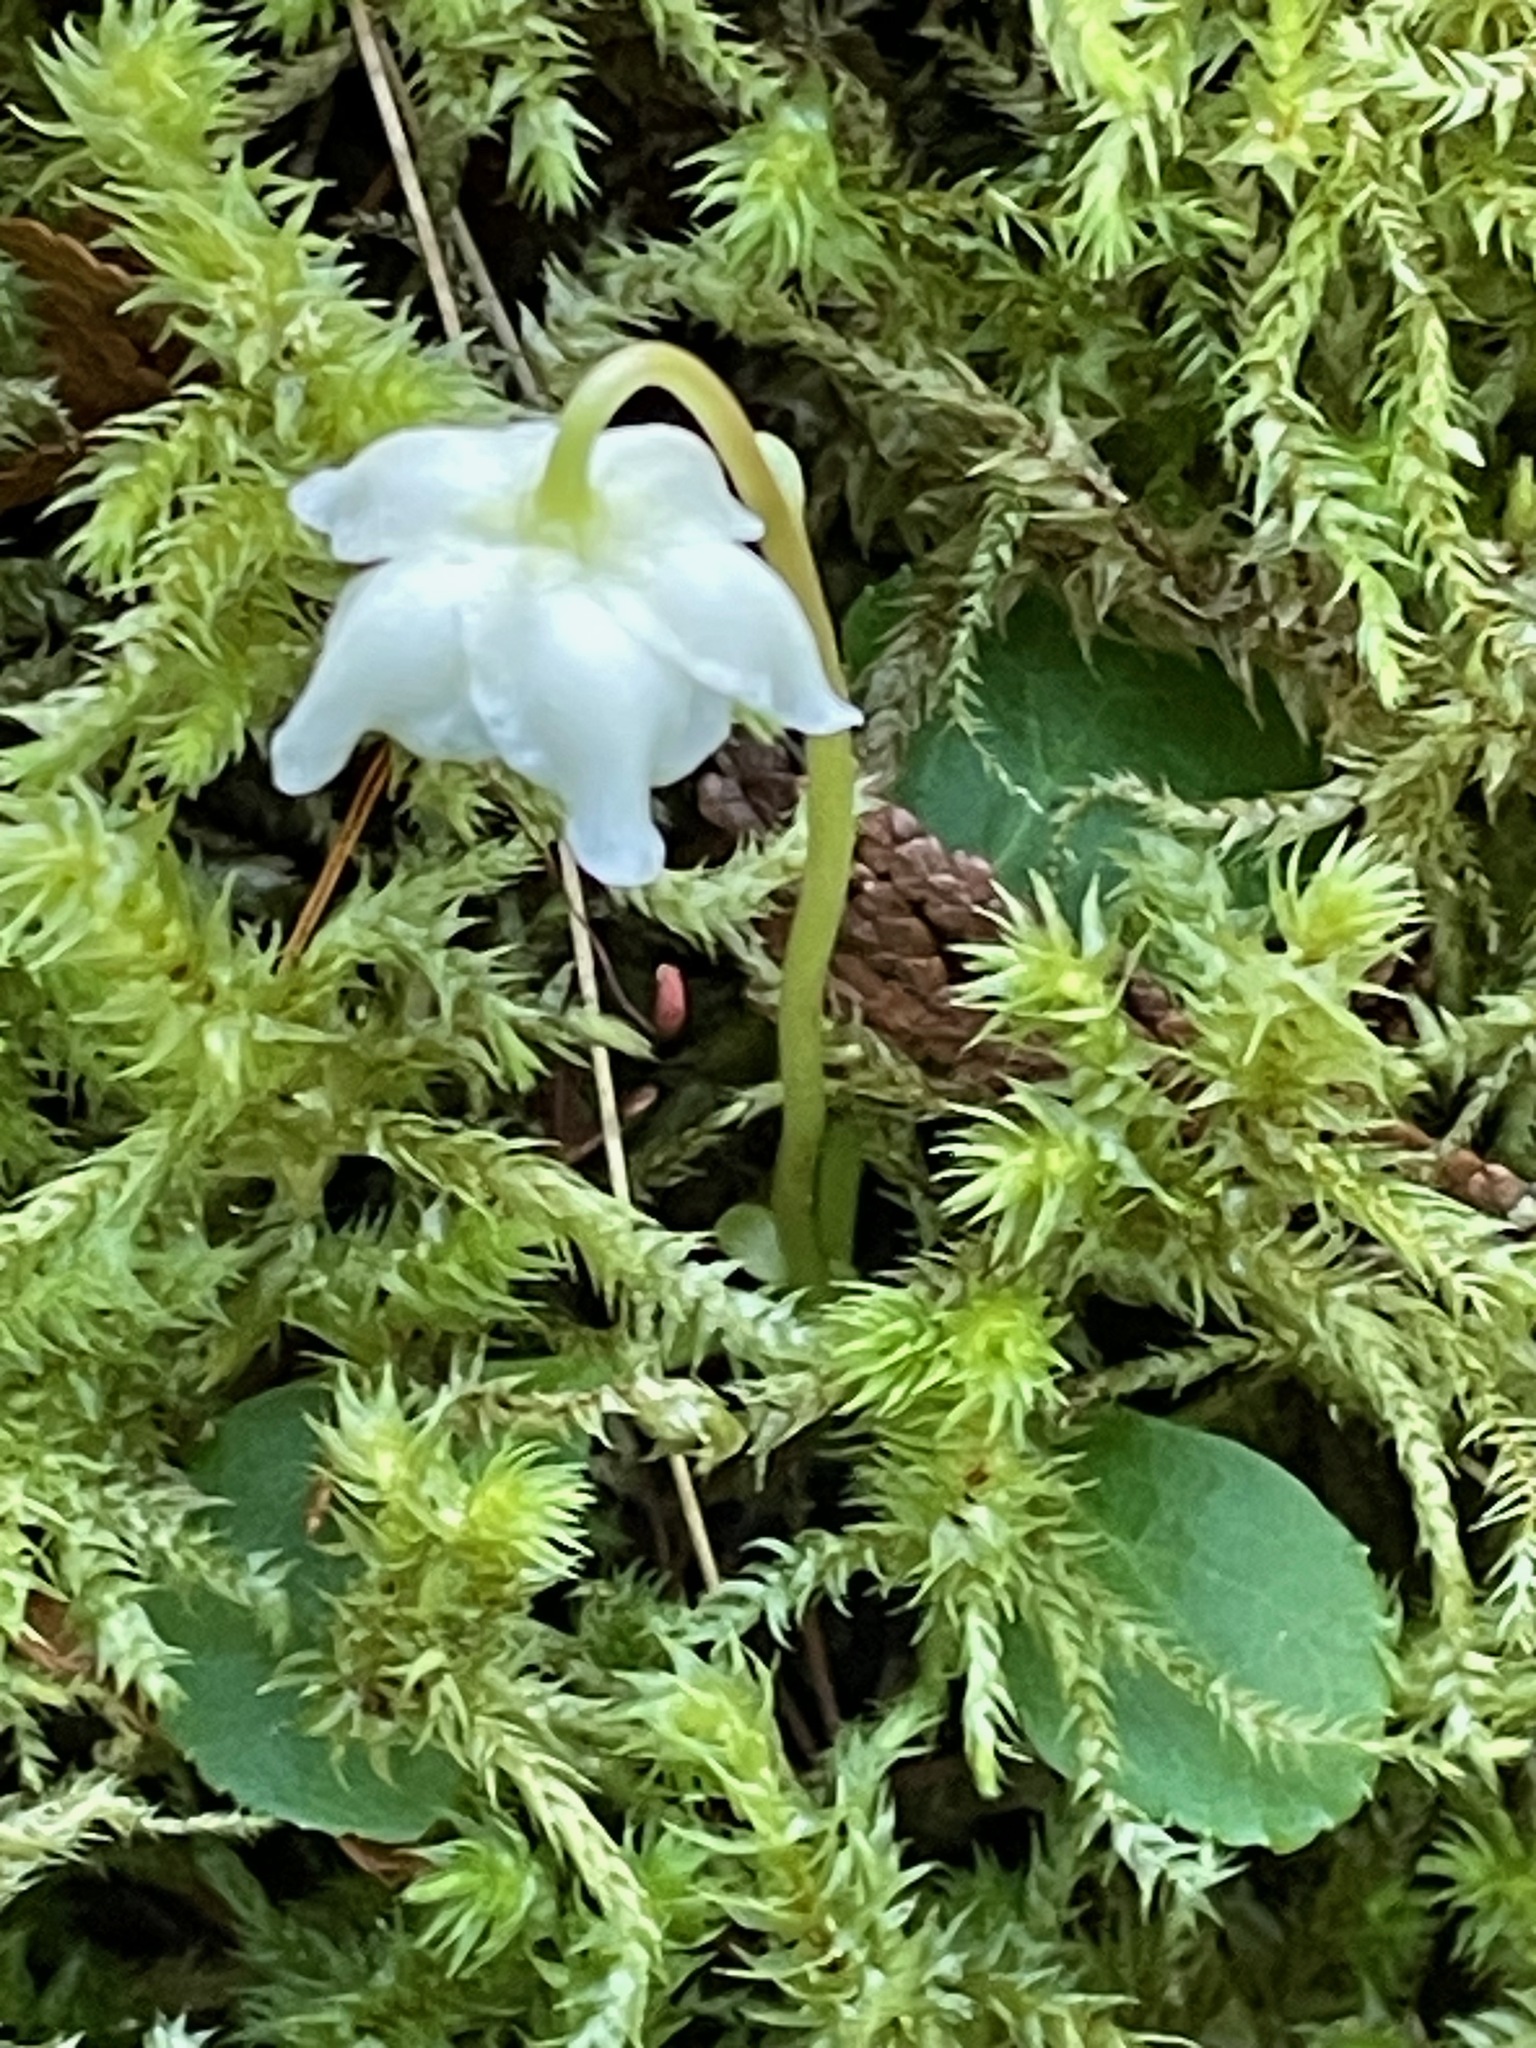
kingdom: Plantae
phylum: Tracheophyta
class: Magnoliopsida
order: Ericales
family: Ericaceae
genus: Moneses
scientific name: Moneses uniflora
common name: One-flowered wintergreen
